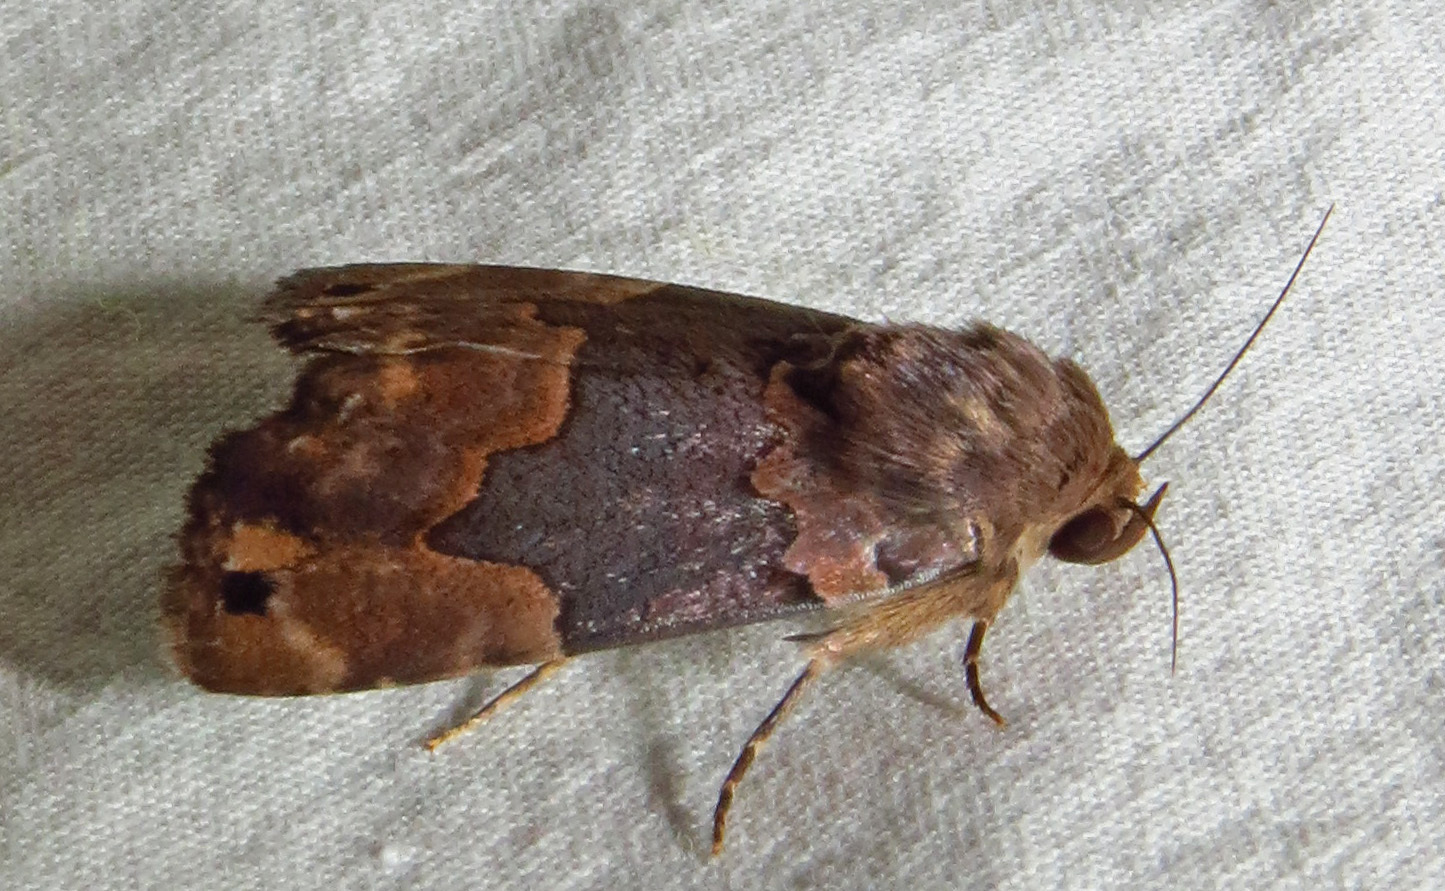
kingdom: Animalia
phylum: Arthropoda
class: Insecta
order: Lepidoptera
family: Erebidae
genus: Dinumma
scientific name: Dinumma deponens
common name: Purplish moth
